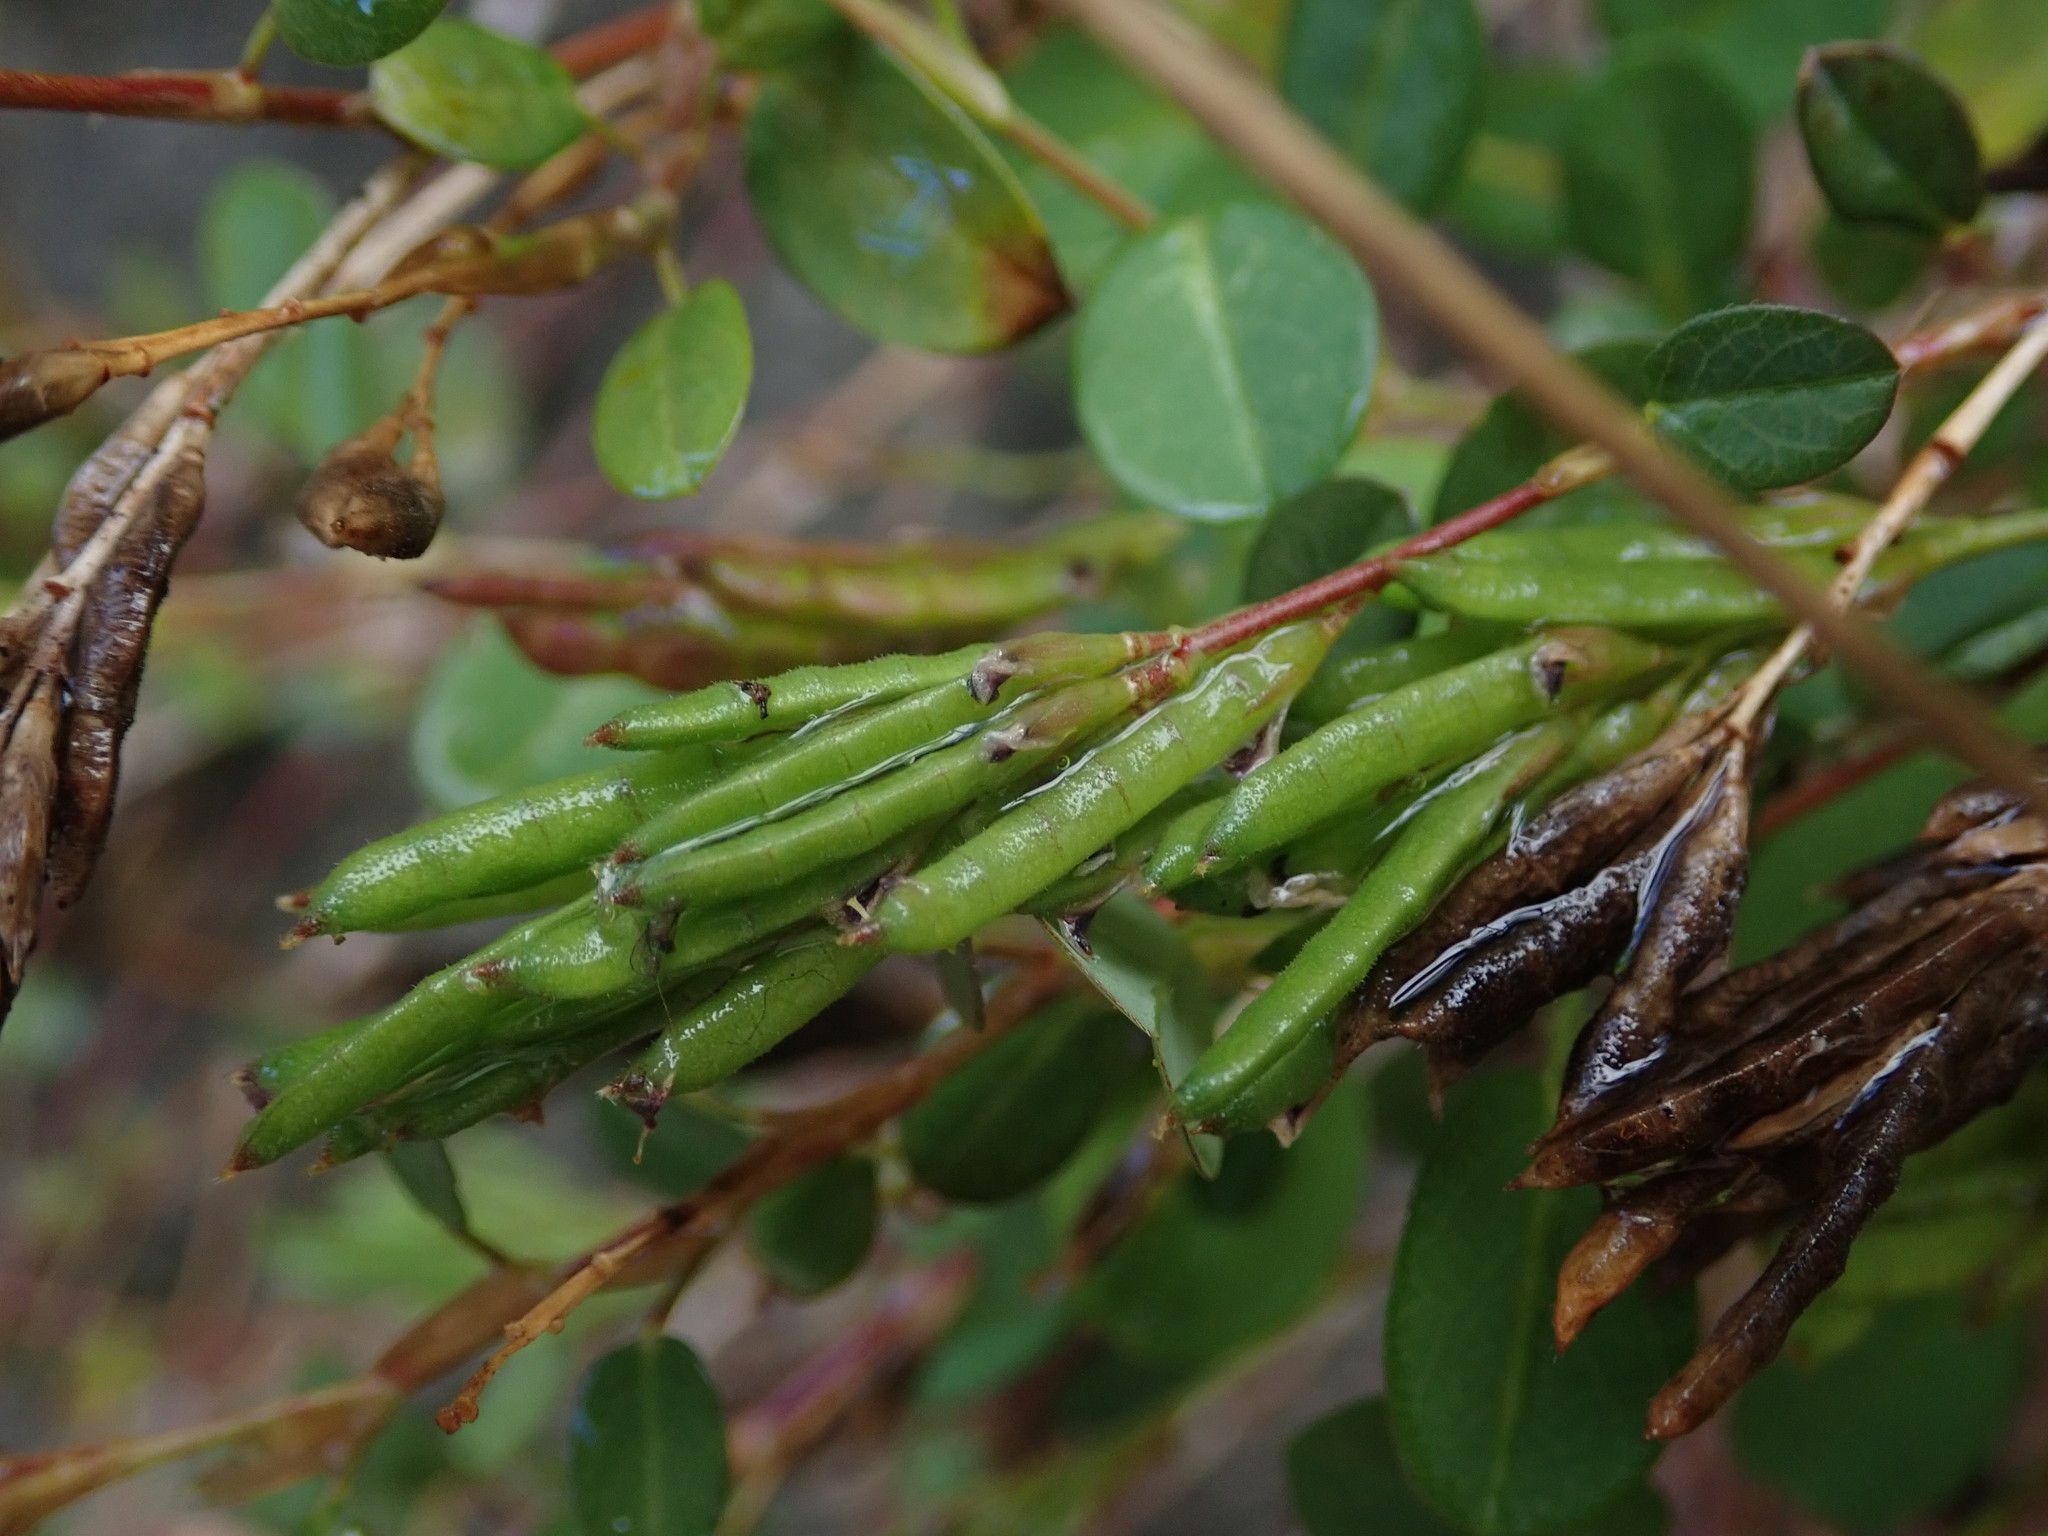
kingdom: Plantae
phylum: Tracheophyta
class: Magnoliopsida
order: Fabales
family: Fabaceae
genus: Alysicarpus
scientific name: Alysicarpus vaginalis
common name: White moneywort
